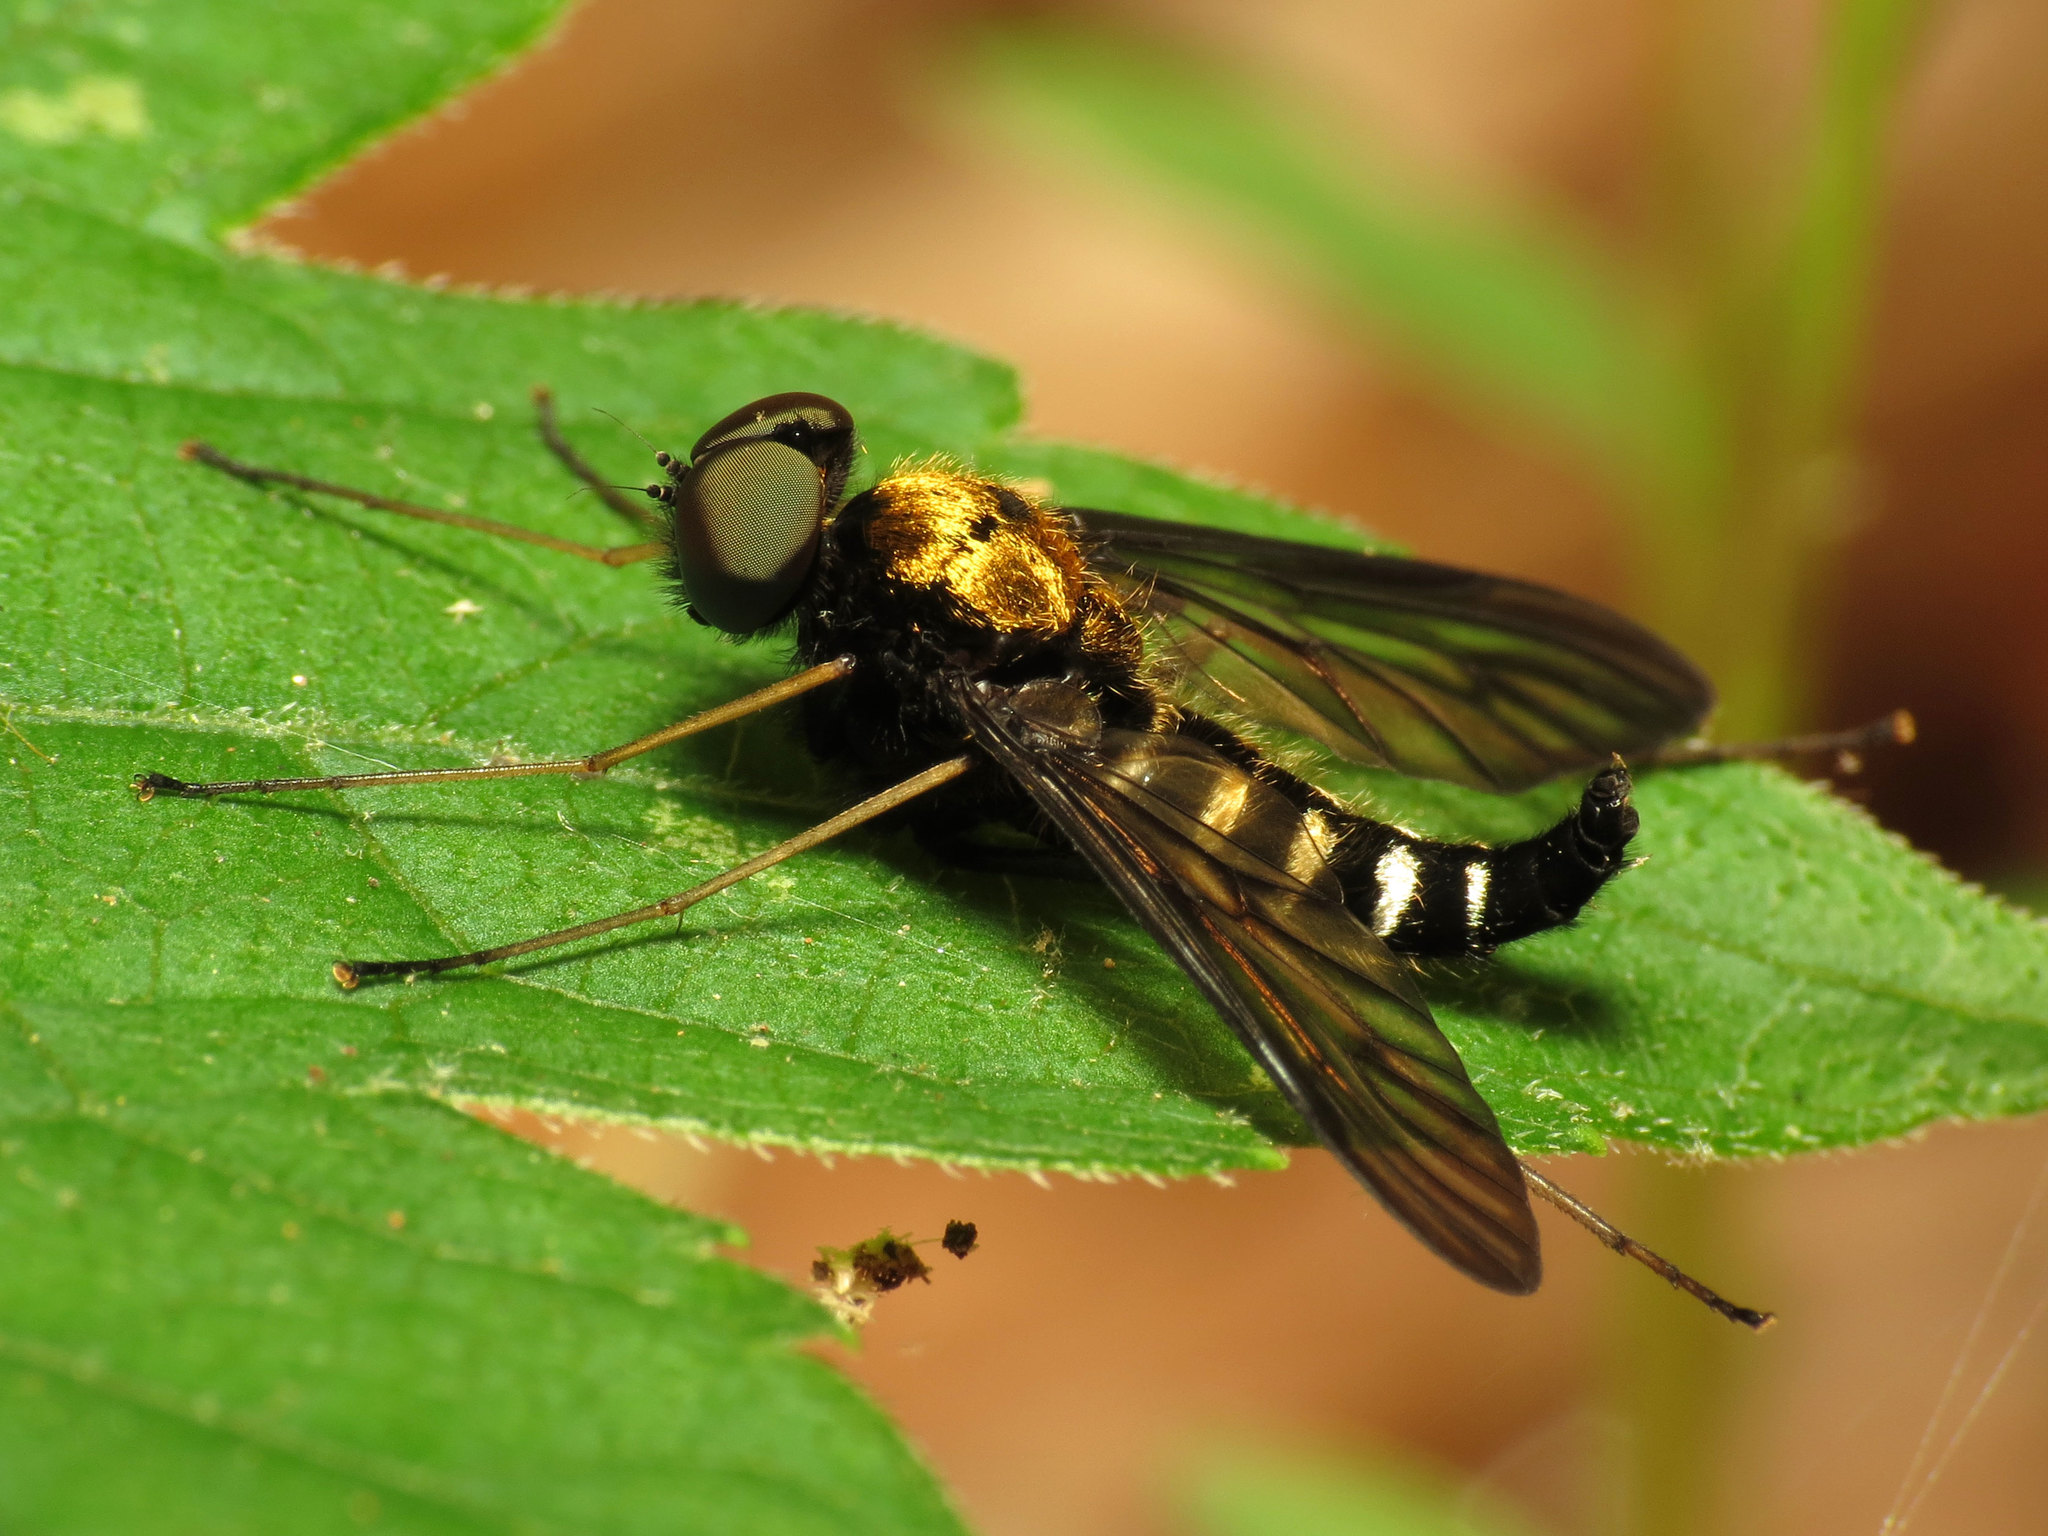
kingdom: Animalia
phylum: Arthropoda
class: Insecta
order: Diptera
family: Rhagionidae
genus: Chrysopilus
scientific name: Chrysopilus thoracicus
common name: Golden-backed snipe fly
